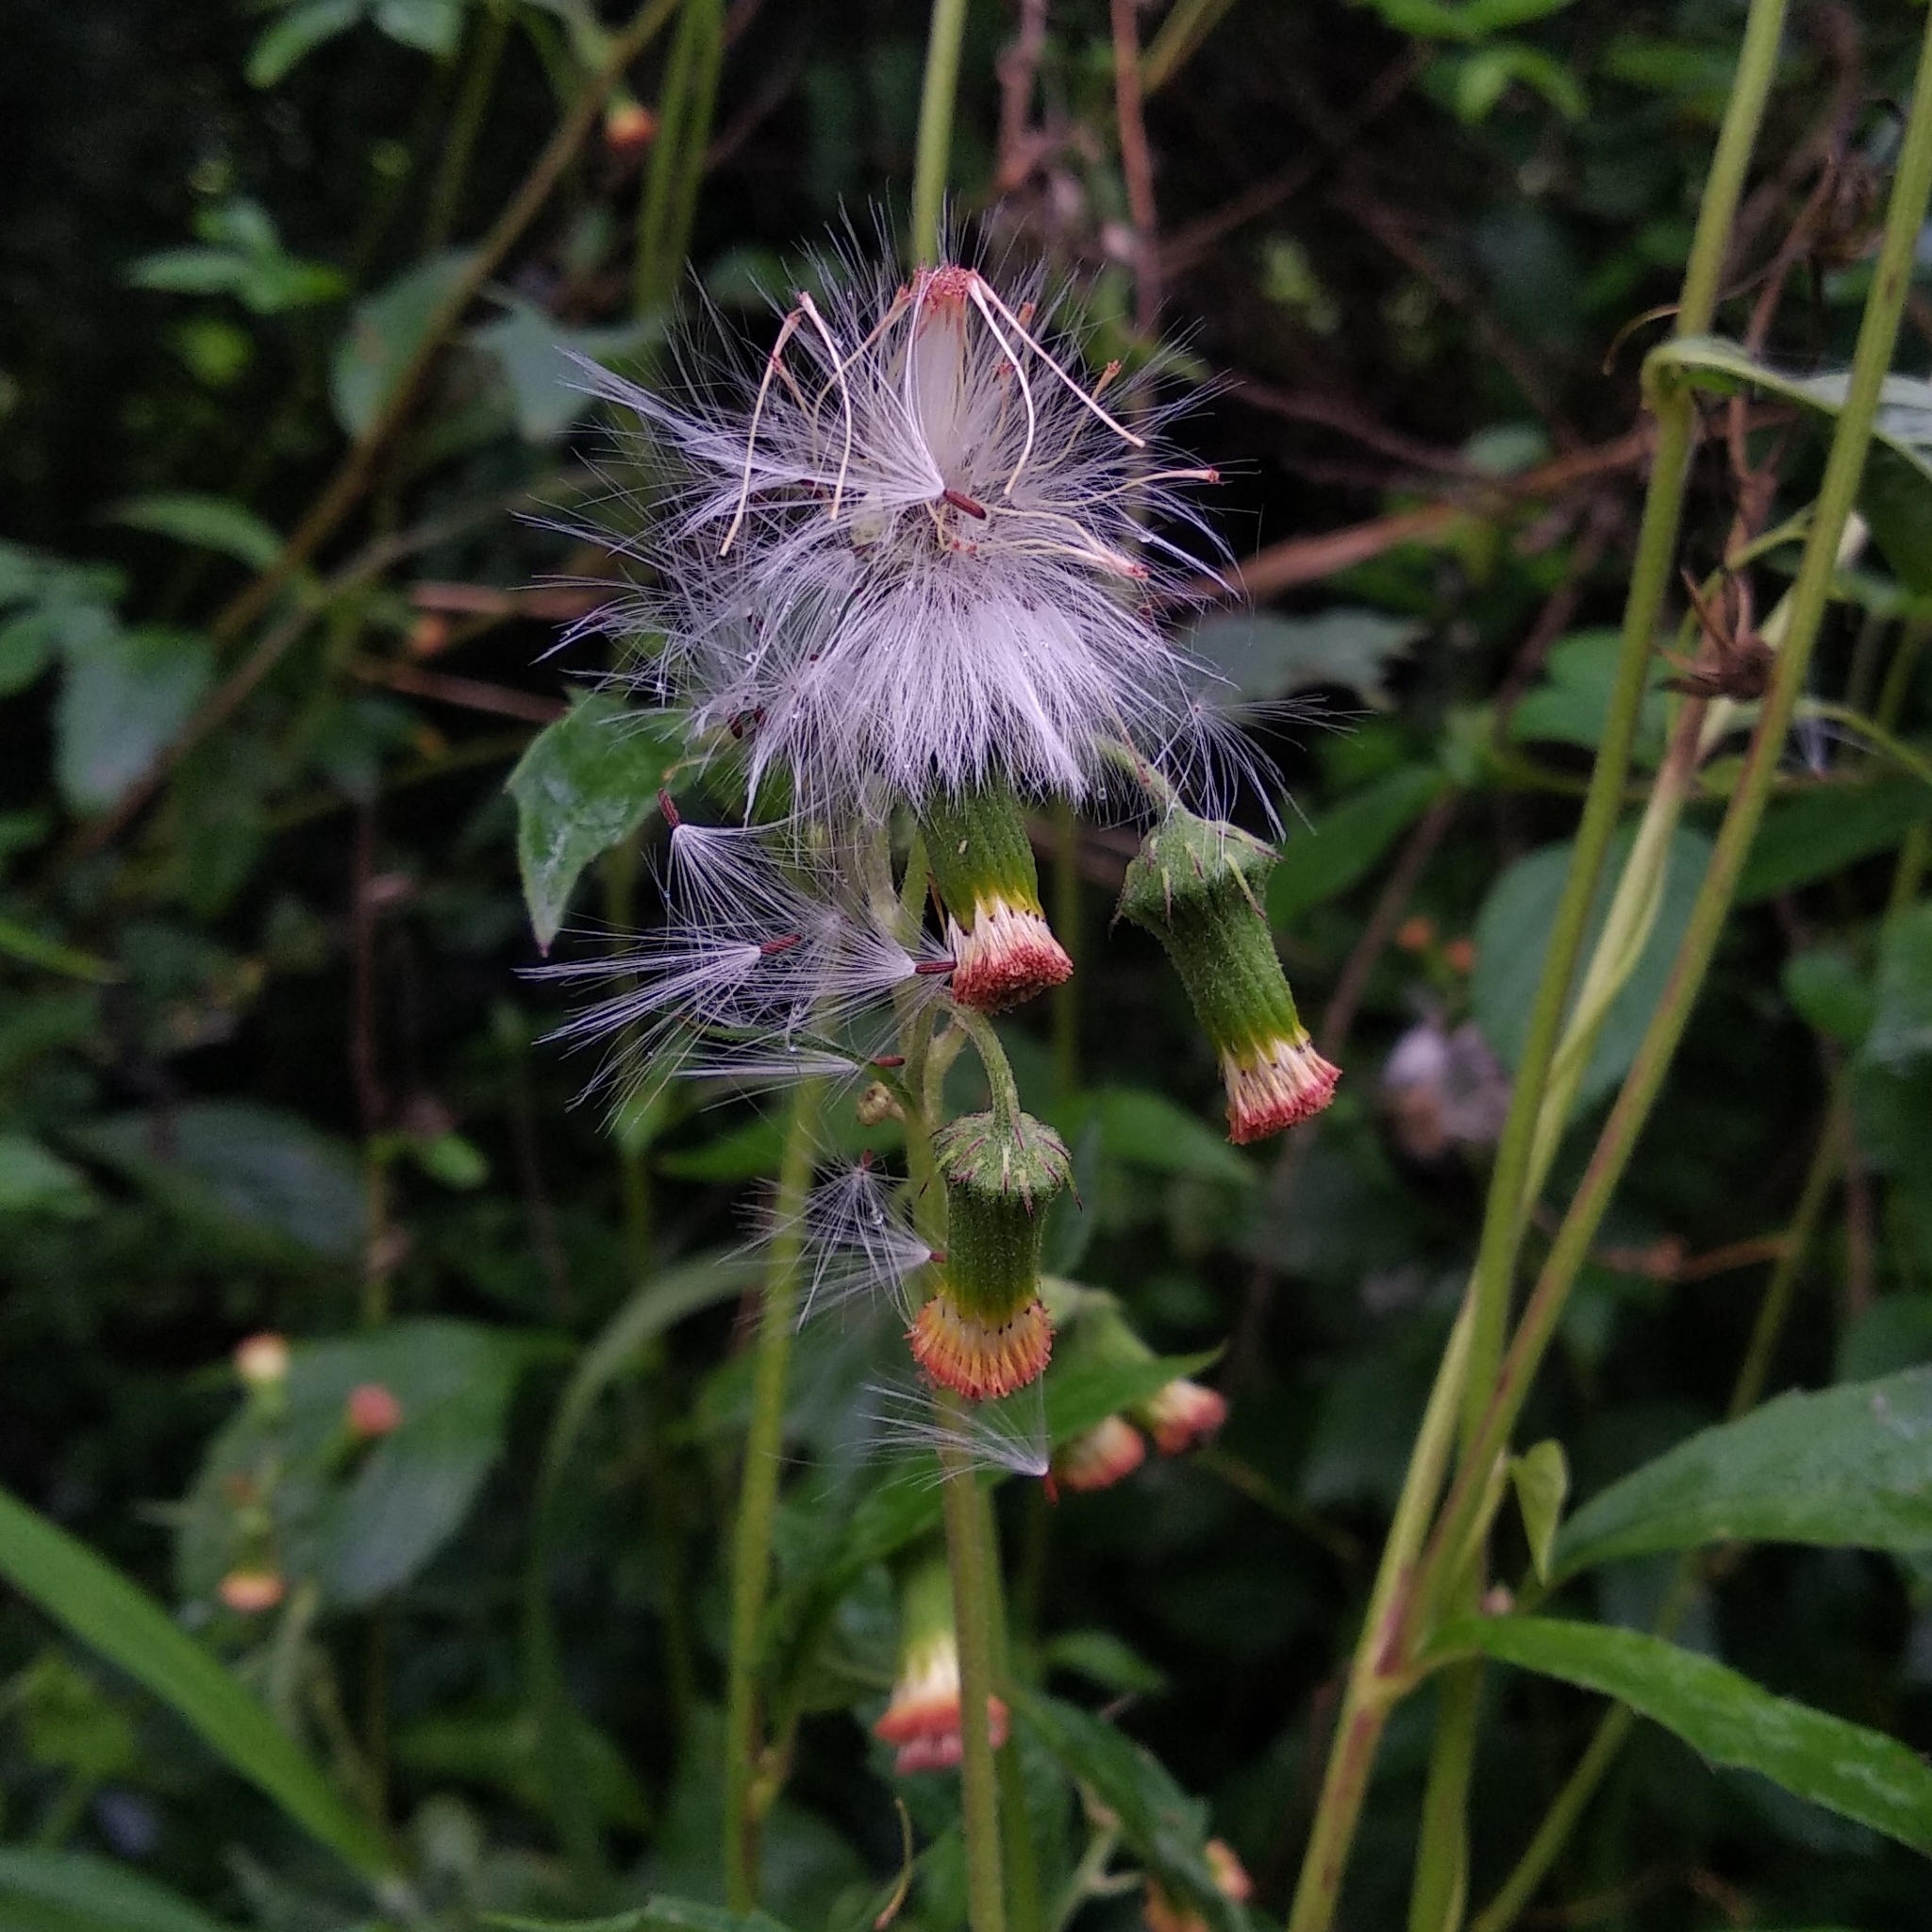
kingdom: Plantae
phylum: Tracheophyta
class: Magnoliopsida
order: Asterales
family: Asteraceae
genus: Crassocephalum
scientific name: Crassocephalum crepidioides
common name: Redflower ragleaf
